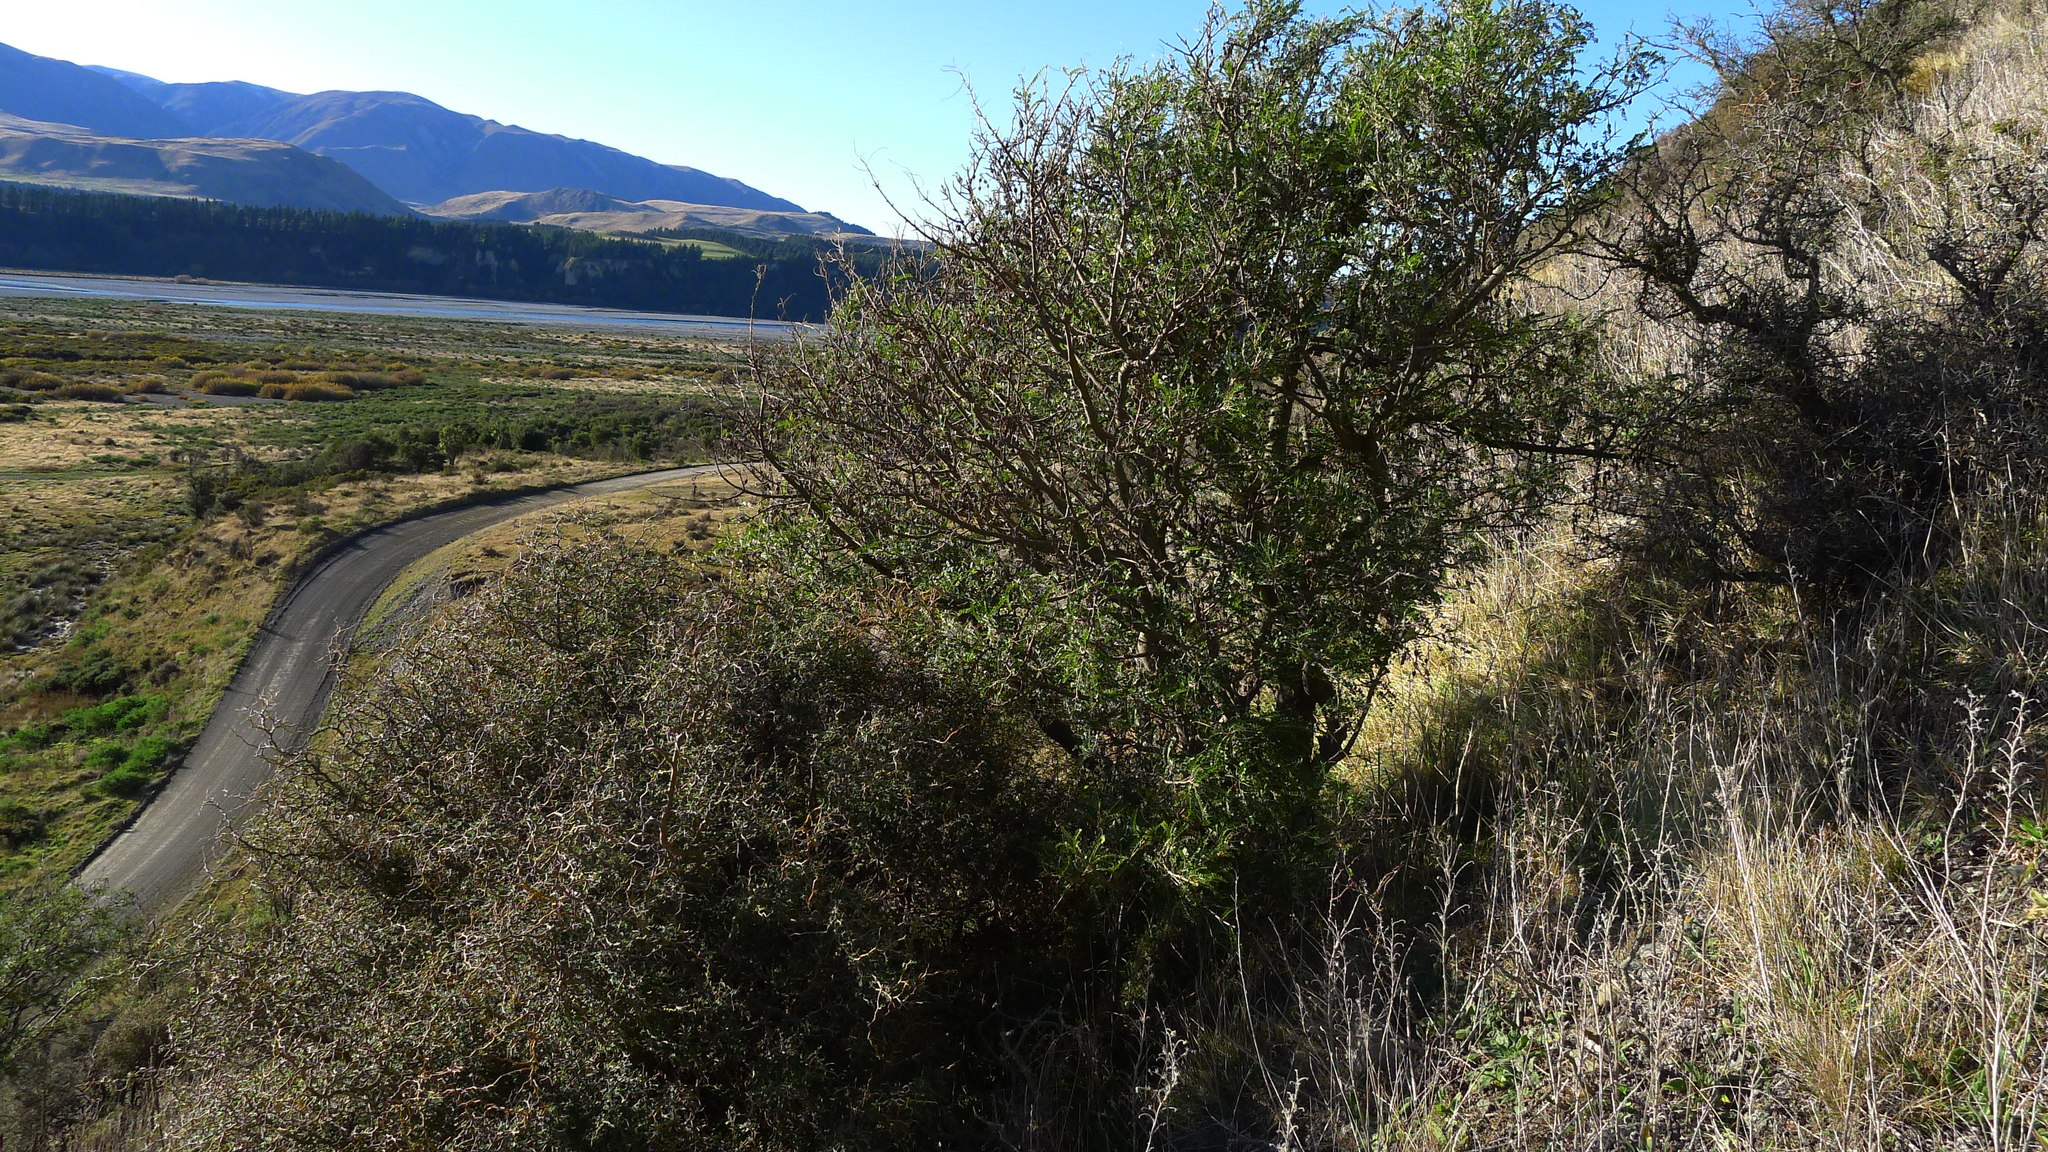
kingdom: Plantae
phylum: Tracheophyta
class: Magnoliopsida
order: Fabales
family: Fabaceae
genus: Sophora
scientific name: Sophora microphylla
